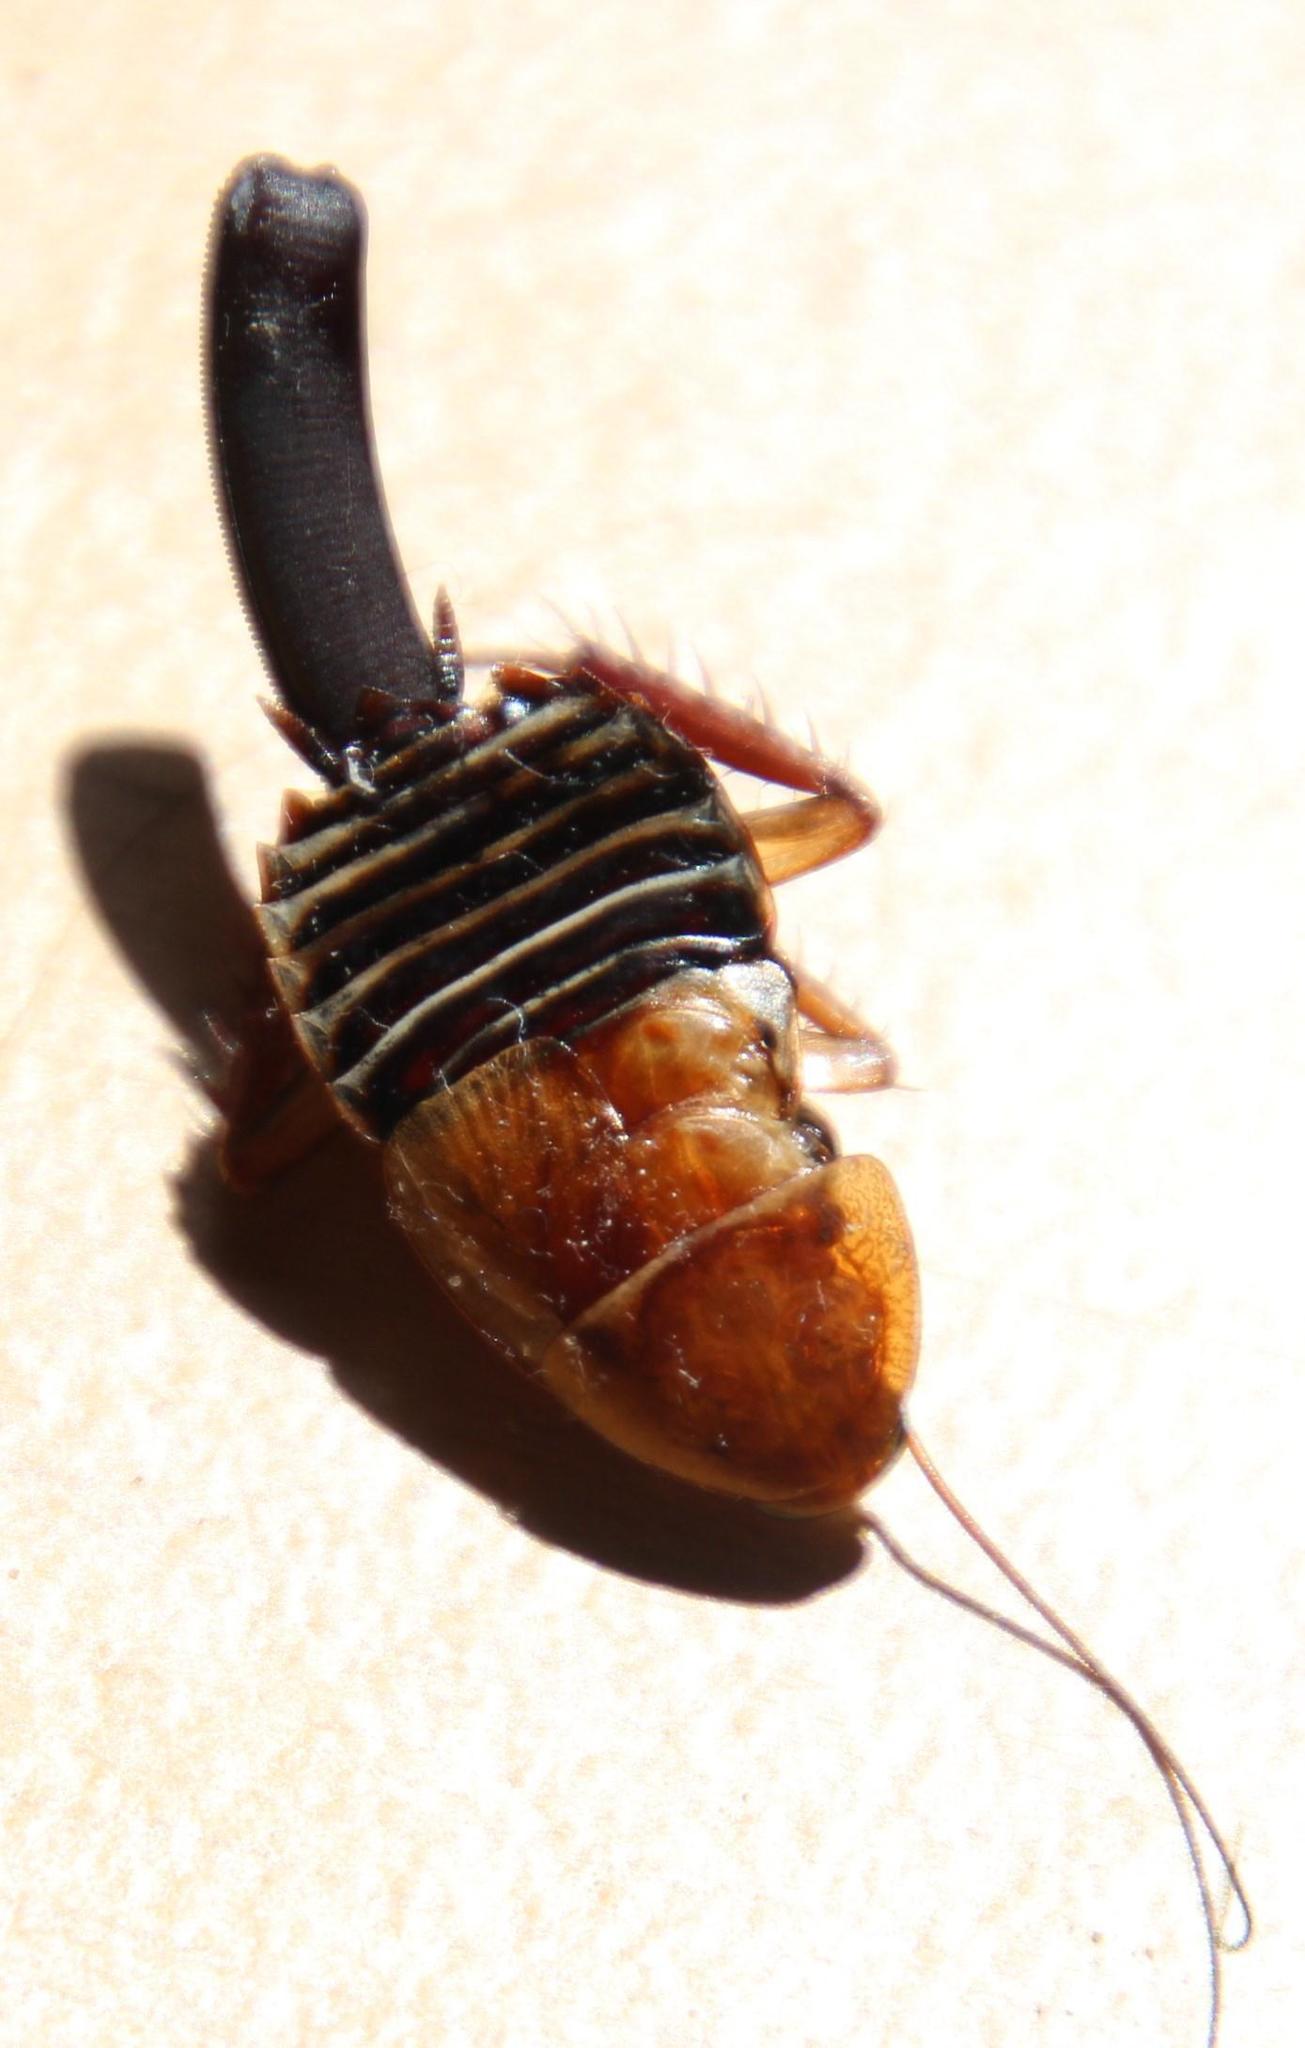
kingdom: Animalia
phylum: Arthropoda
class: Insecta
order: Blattodea
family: Ectobiidae
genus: Temnopteryx
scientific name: Temnopteryx phalerata
